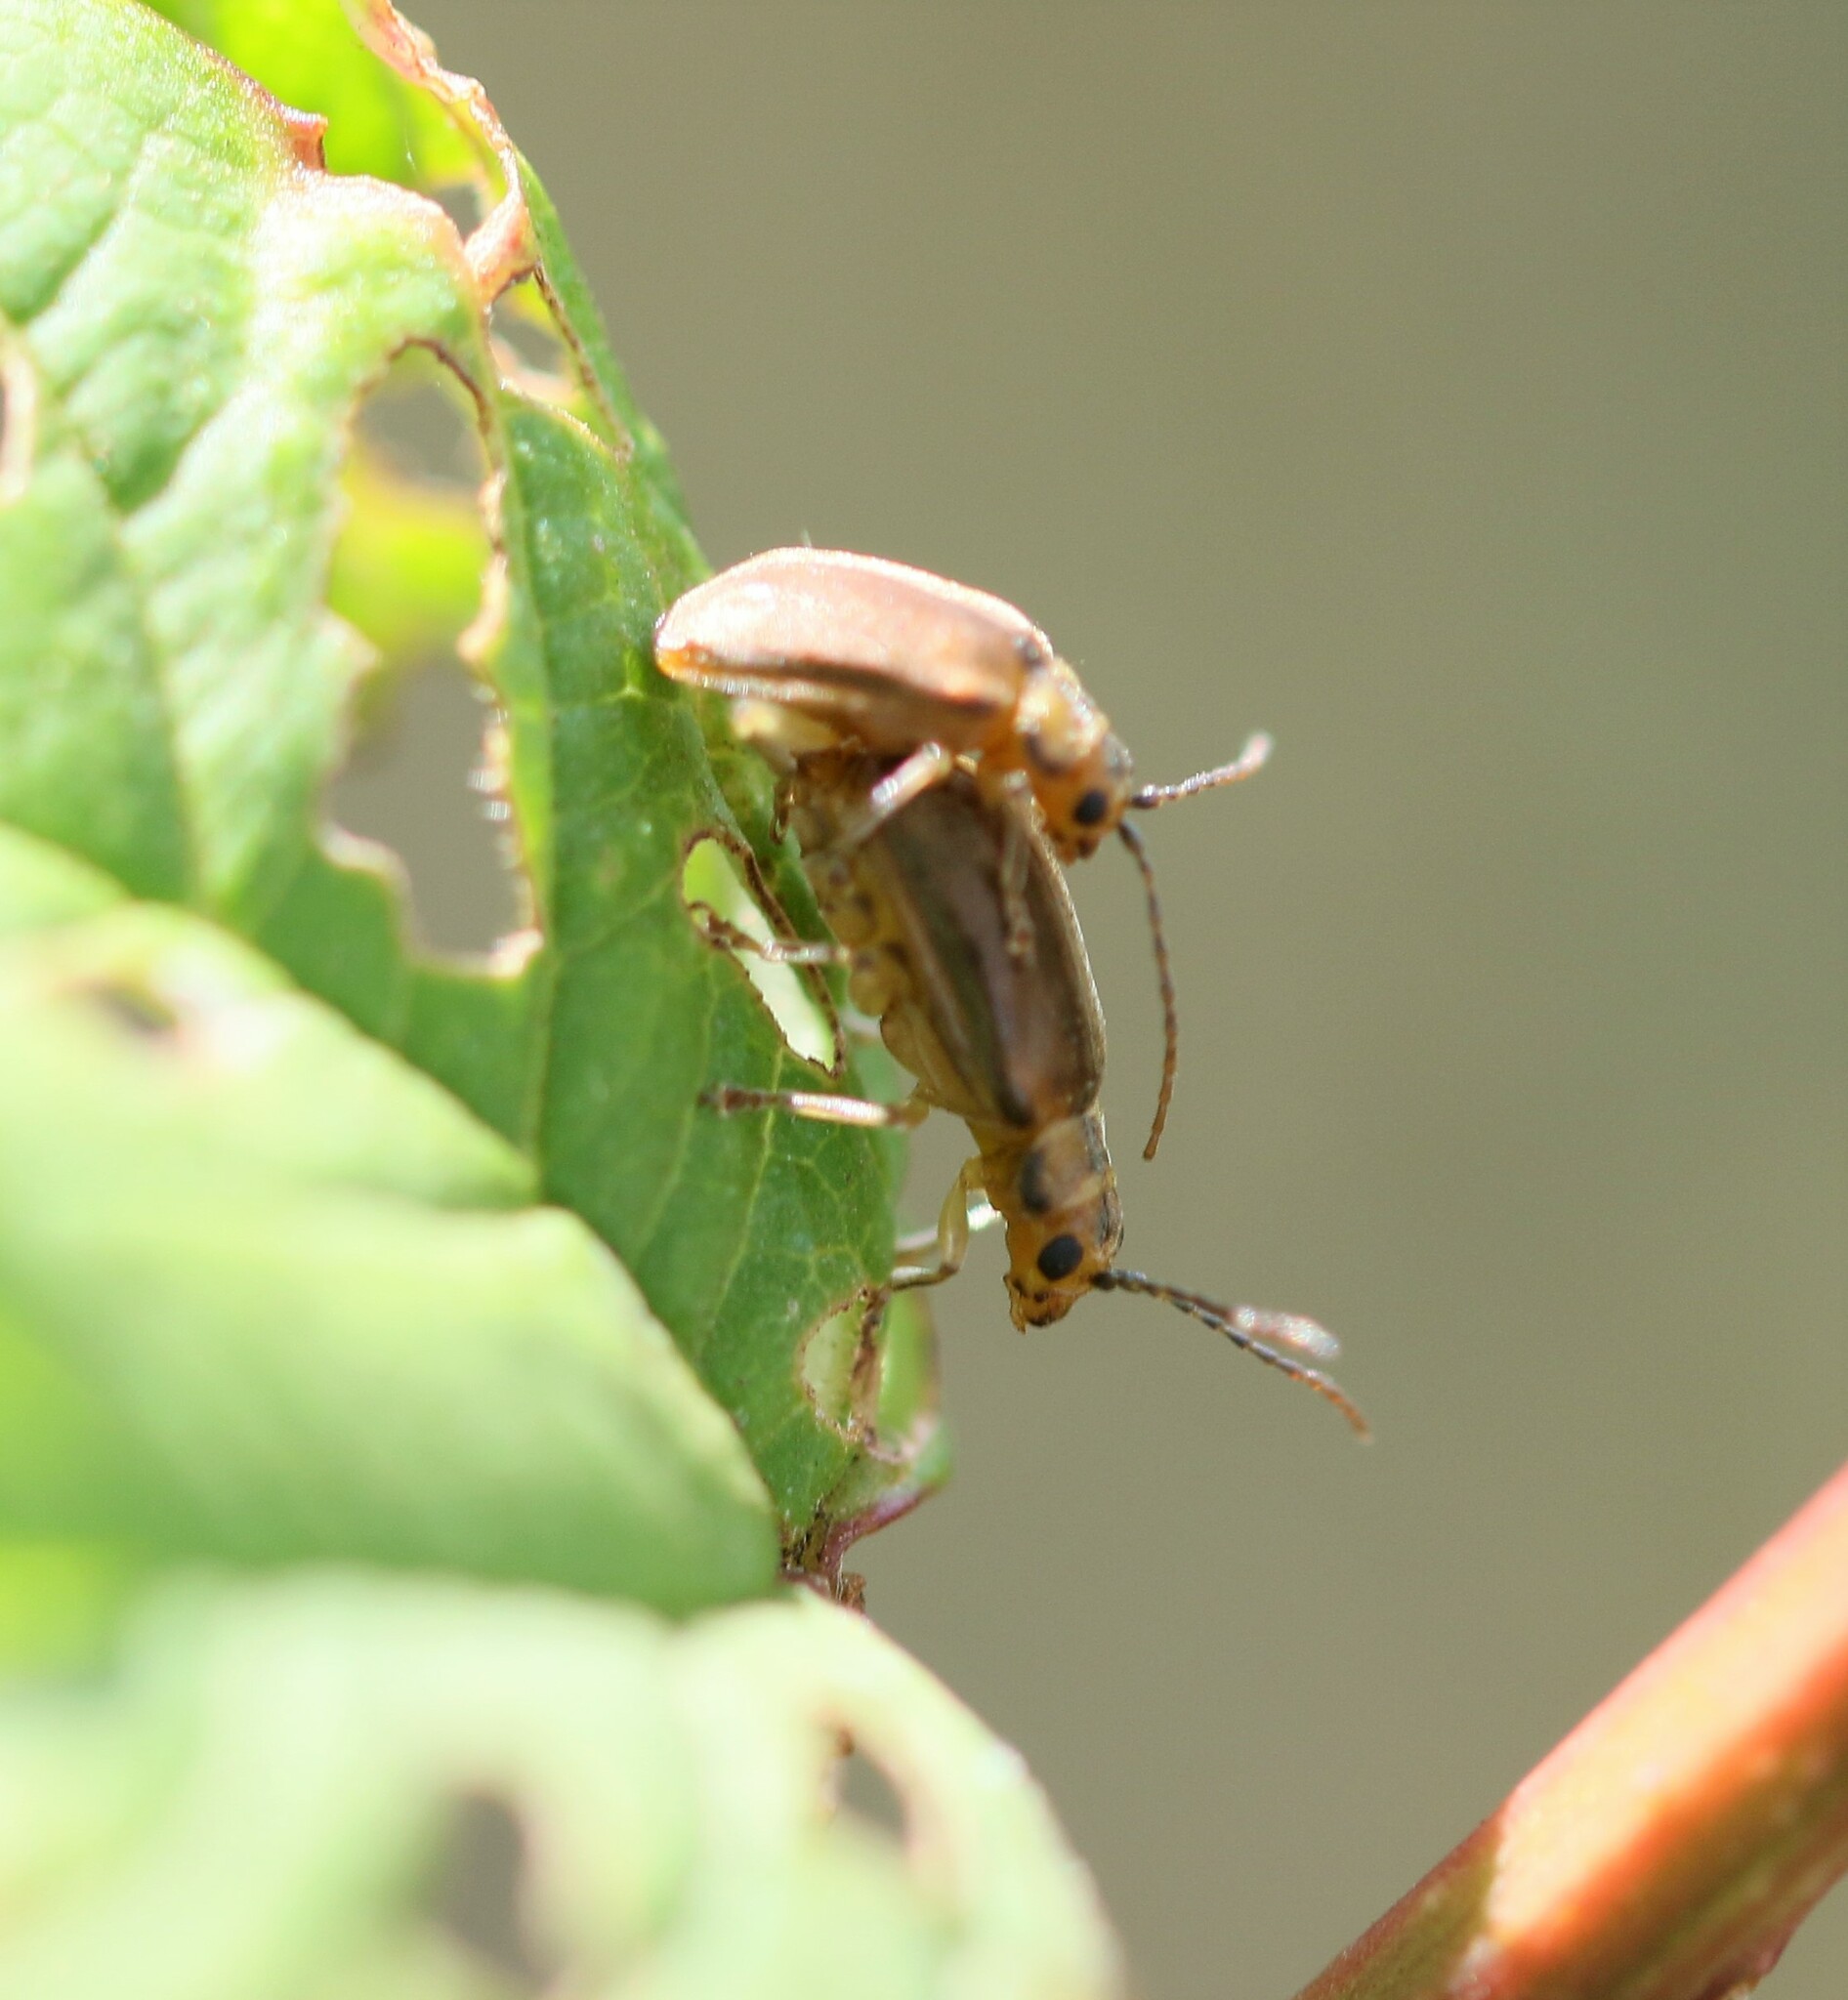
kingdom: Animalia
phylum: Arthropoda
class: Insecta
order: Coleoptera
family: Chrysomelidae
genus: Pyrrhalta
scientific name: Pyrrhalta viburni
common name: Guelder-rose leaf beetle
